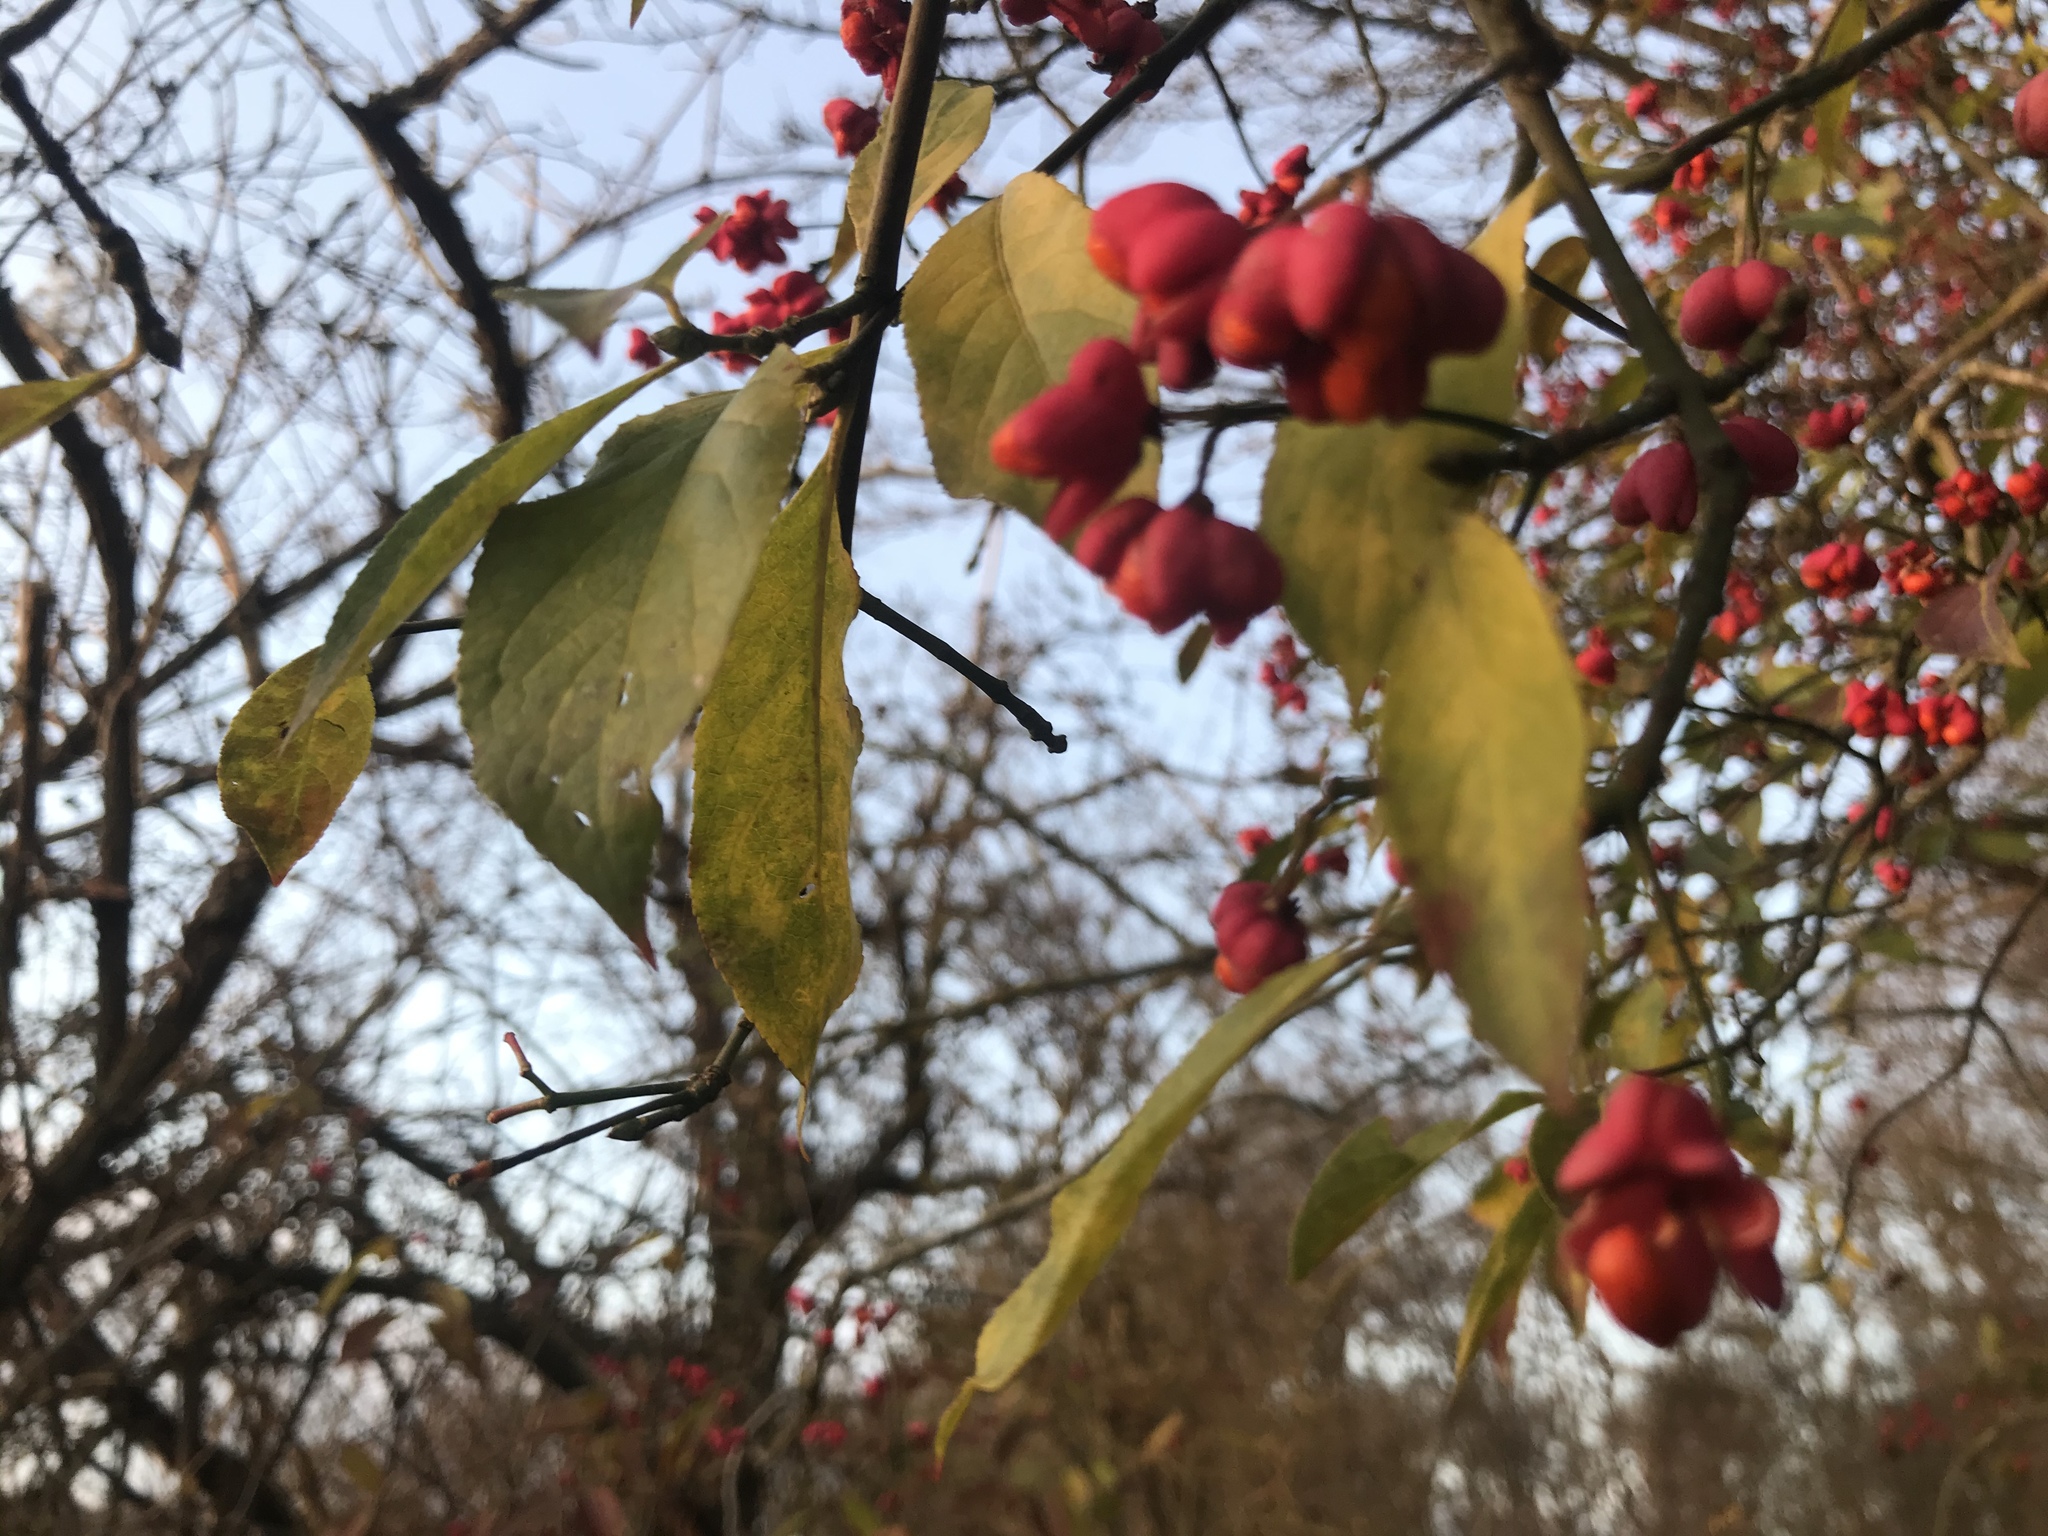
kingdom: Plantae
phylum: Tracheophyta
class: Magnoliopsida
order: Celastrales
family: Celastraceae
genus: Euonymus
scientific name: Euonymus europaeus
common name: Spindle
